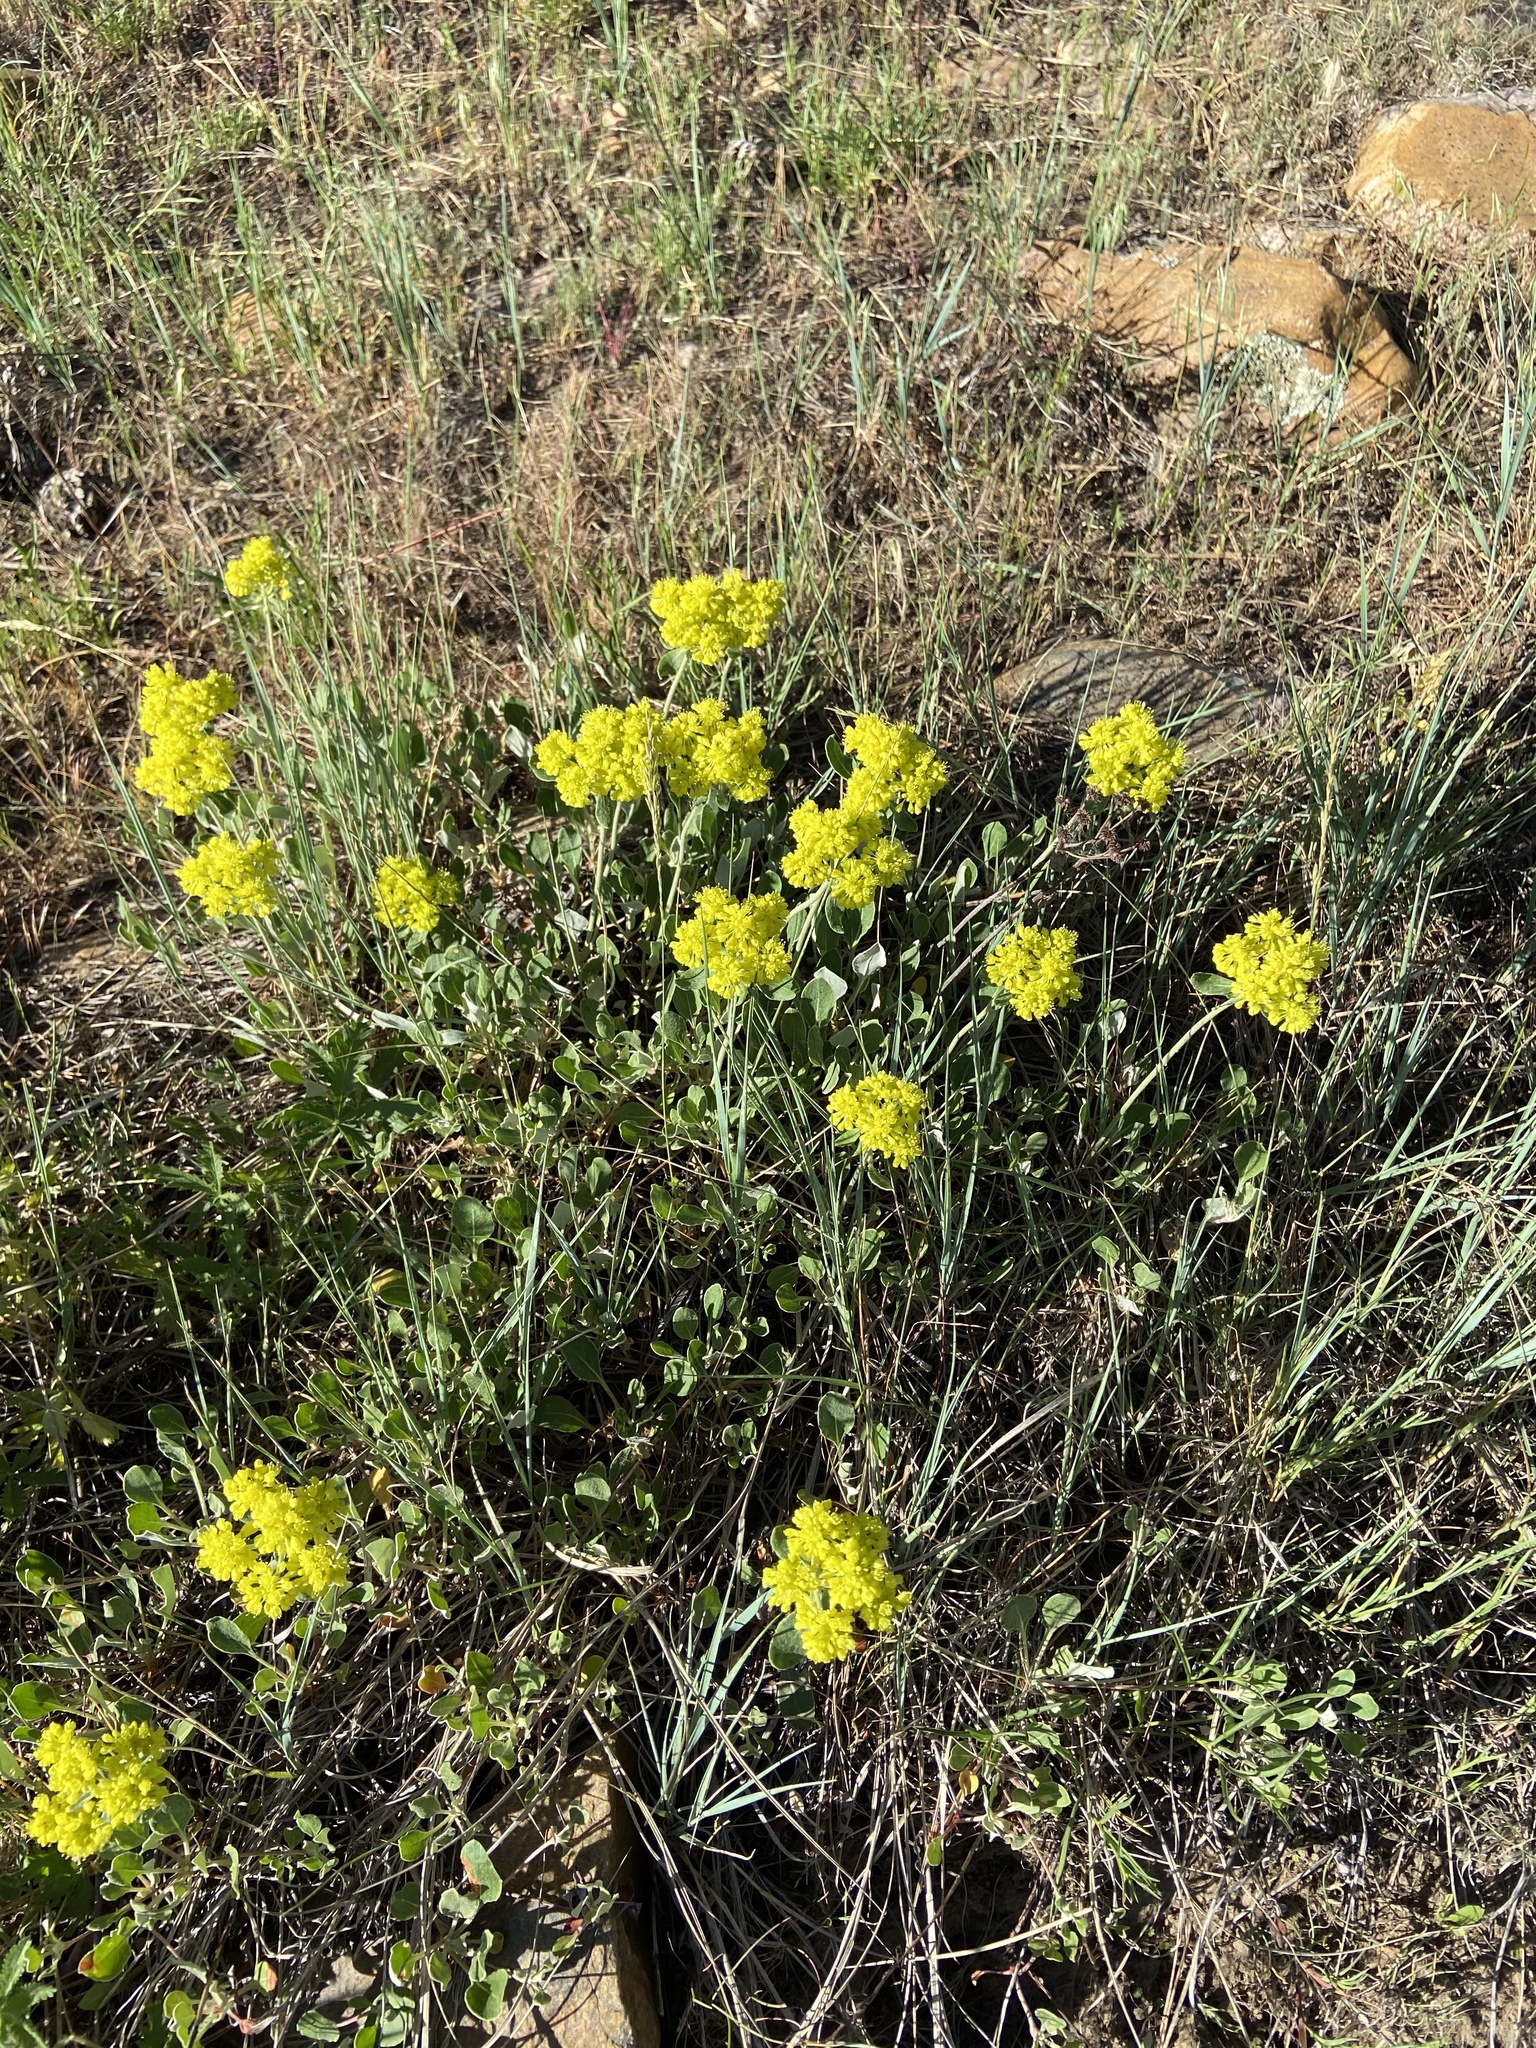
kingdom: Plantae
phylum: Tracheophyta
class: Magnoliopsida
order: Caryophyllales
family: Polygonaceae
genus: Eriogonum
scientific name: Eriogonum umbellatum
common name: Sulfur-buckwheat
